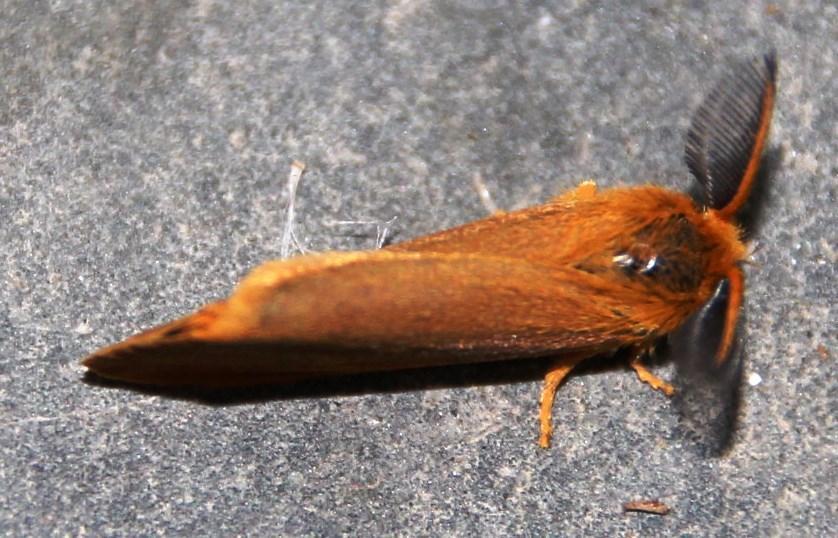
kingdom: Animalia
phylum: Arthropoda
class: Insecta
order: Lepidoptera
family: Erebidae
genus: Bracharoa
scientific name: Bracharoa dregei
